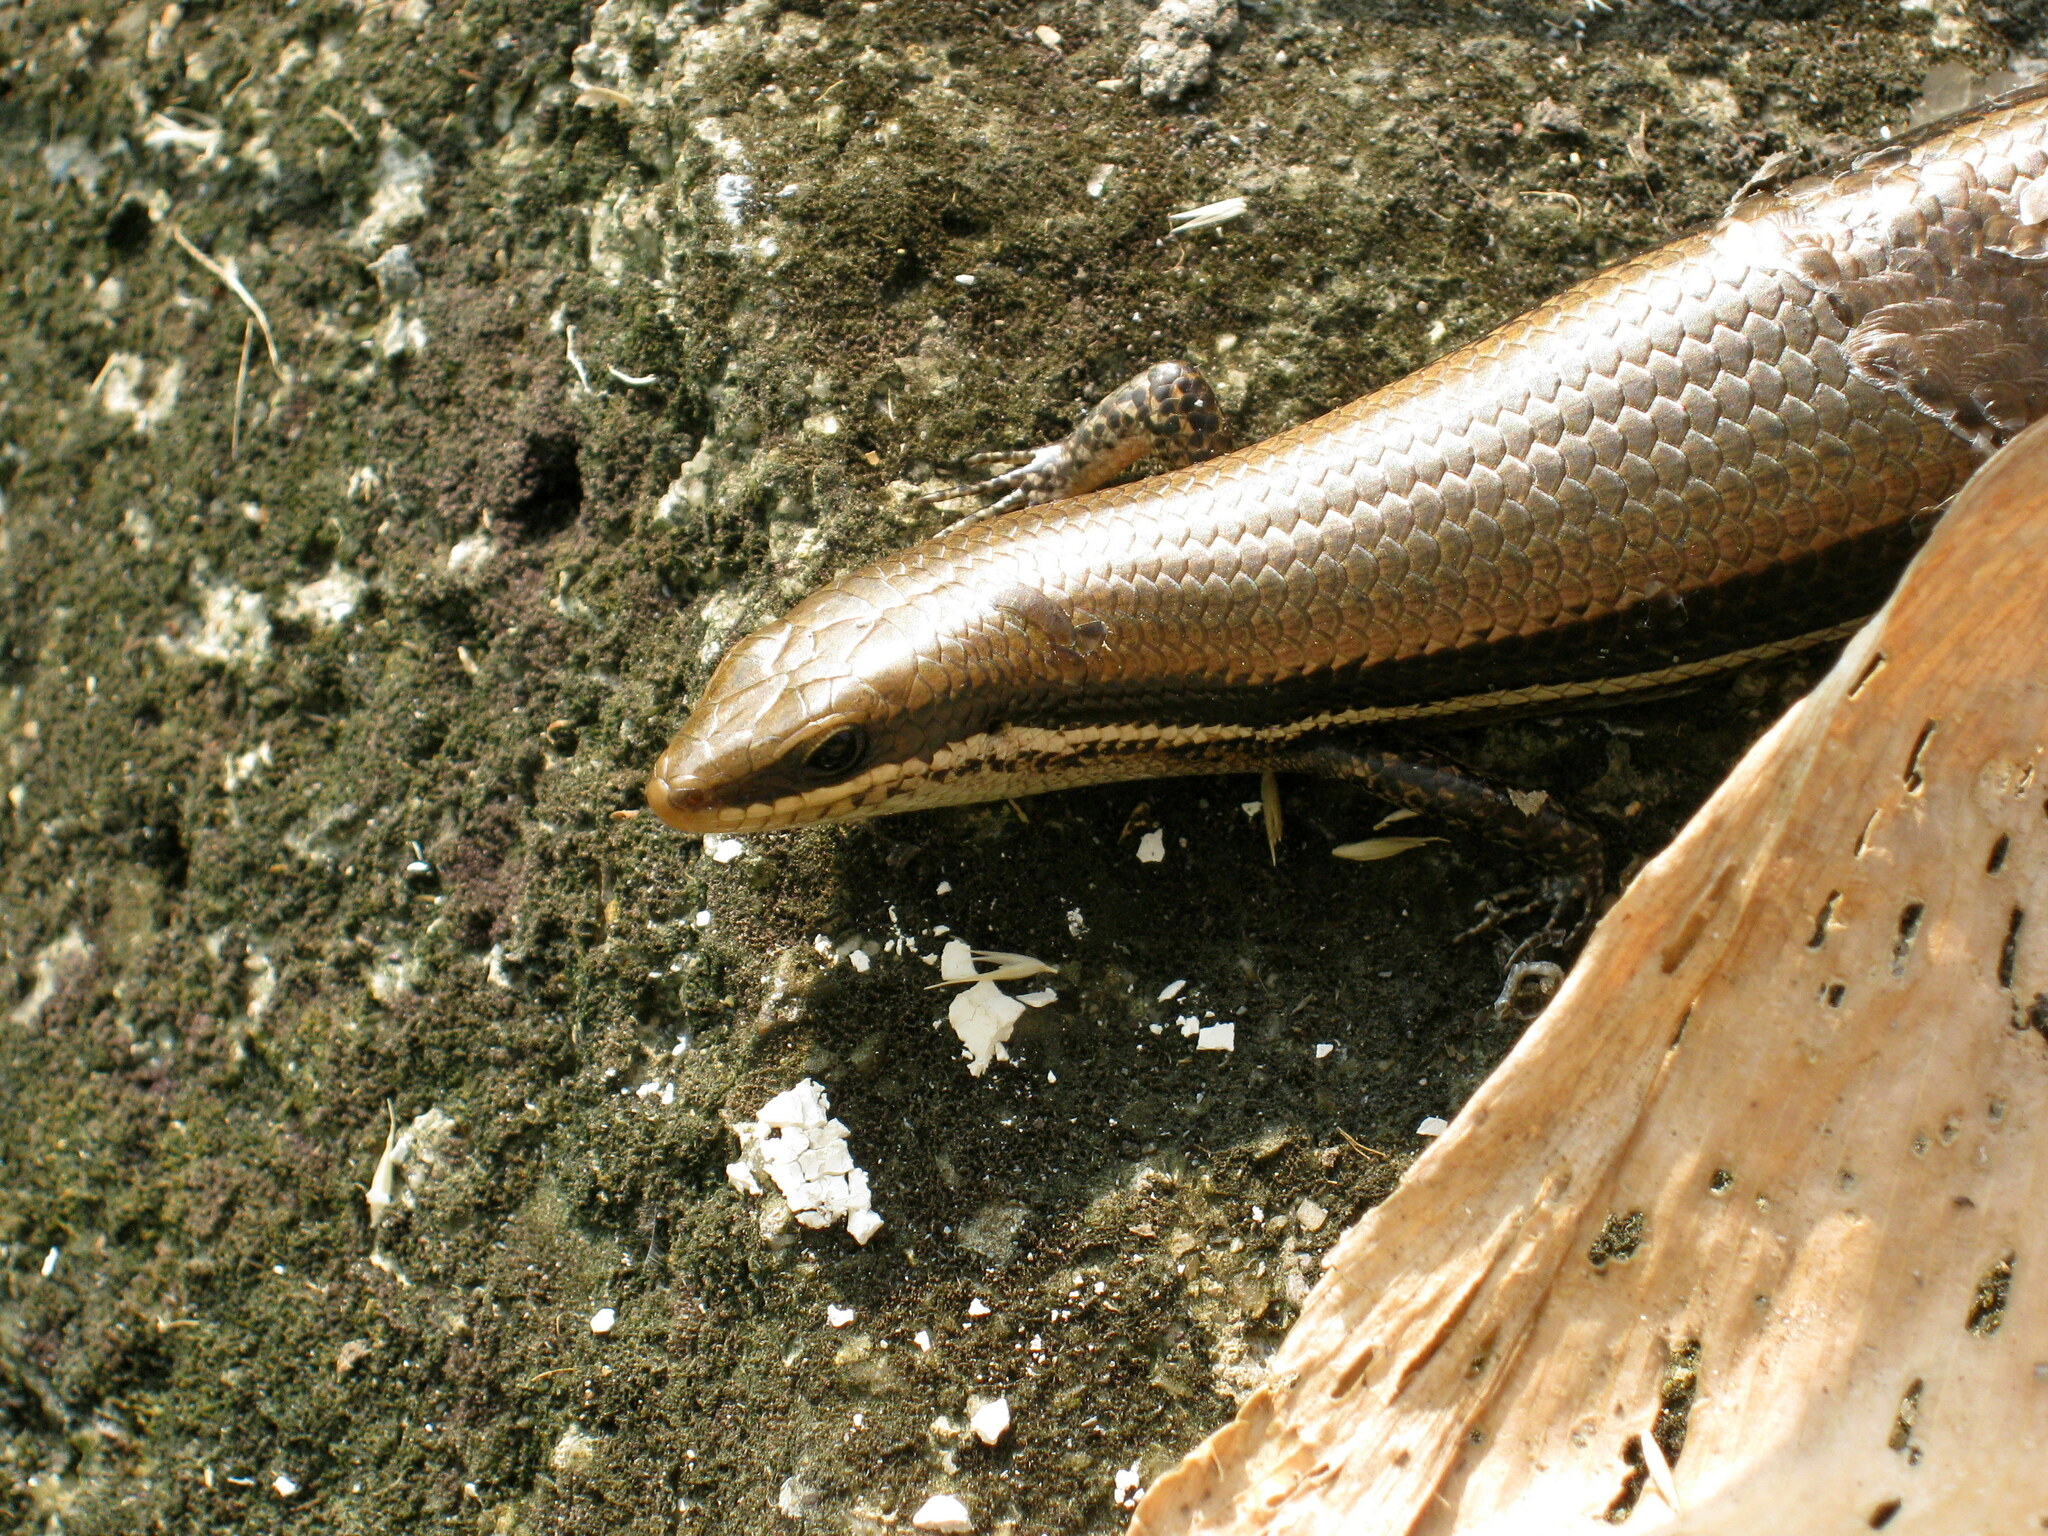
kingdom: Animalia
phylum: Chordata
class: Squamata
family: Scincidae
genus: Marisora
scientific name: Marisora brachypoda
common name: Western middle america skink
